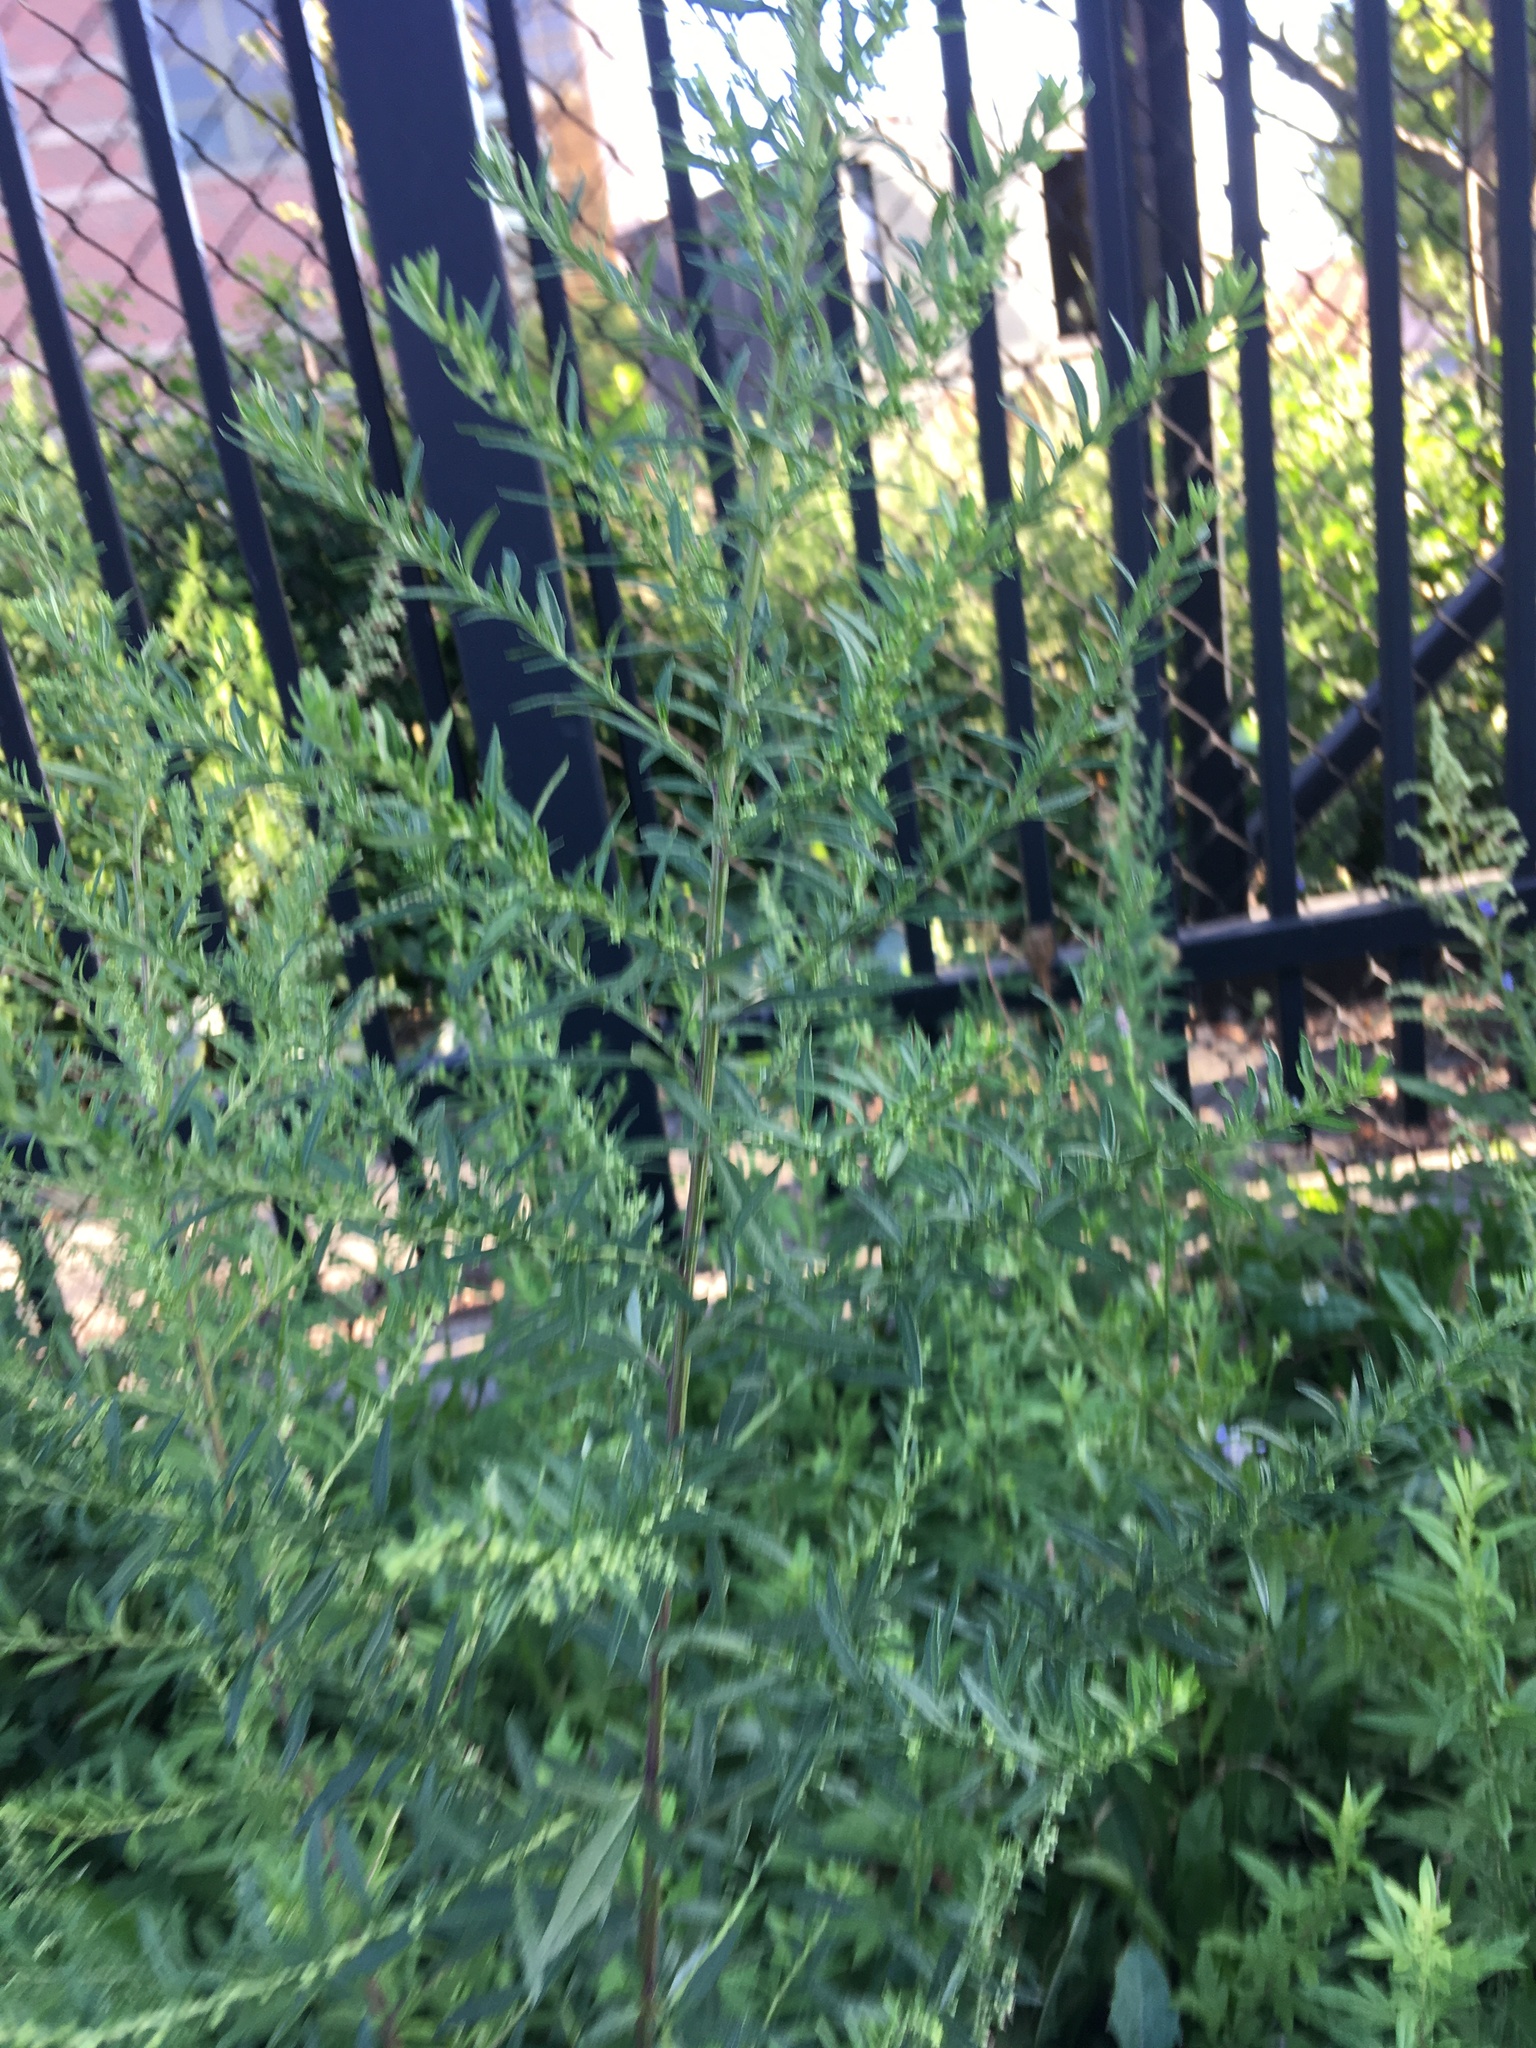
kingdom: Plantae
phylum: Tracheophyta
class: Magnoliopsida
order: Asterales
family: Asteraceae
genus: Artemisia
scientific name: Artemisia vulgaris
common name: Mugwort
